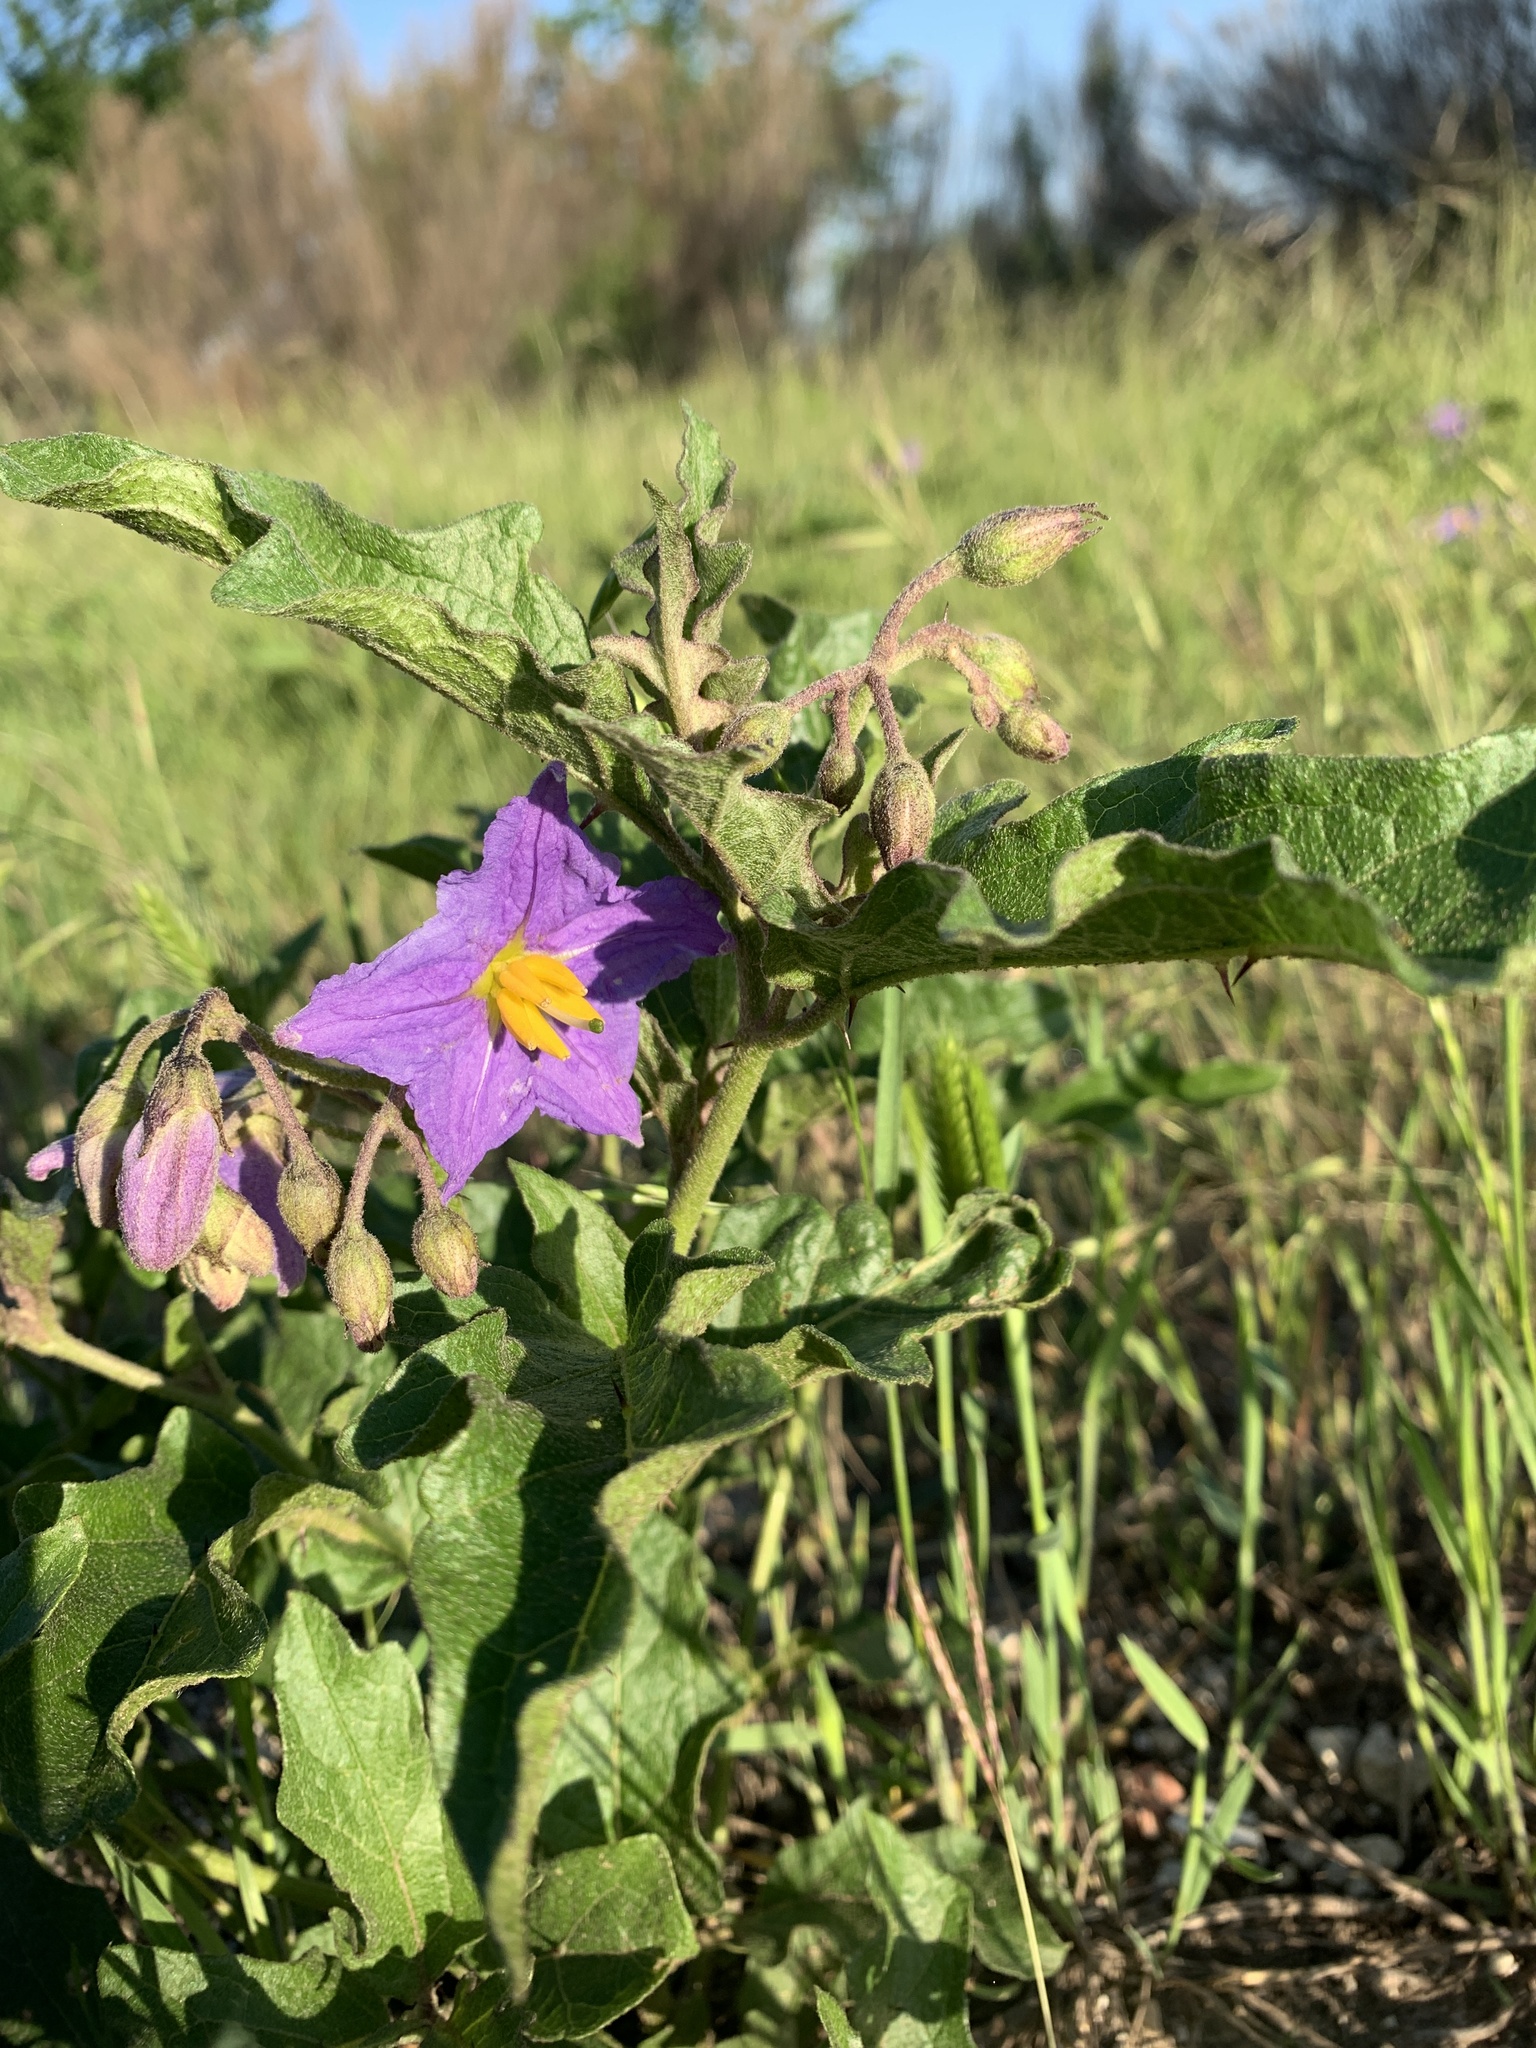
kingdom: Plantae
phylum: Tracheophyta
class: Magnoliopsida
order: Solanales
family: Solanaceae
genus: Solanum
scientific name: Solanum dimidiatum
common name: Carolina horse-nettle
